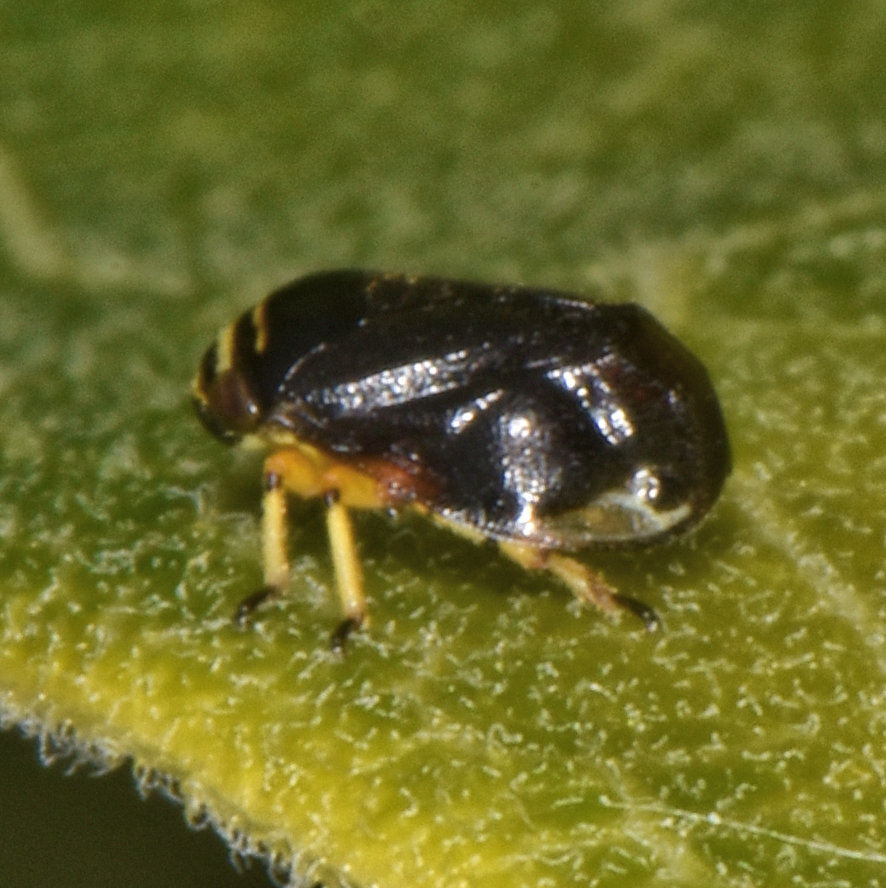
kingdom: Animalia
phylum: Arthropoda
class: Insecta
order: Hemiptera
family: Clastopteridae
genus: Clastoptera
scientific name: Clastoptera proteus
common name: Dogwood spittlebug
